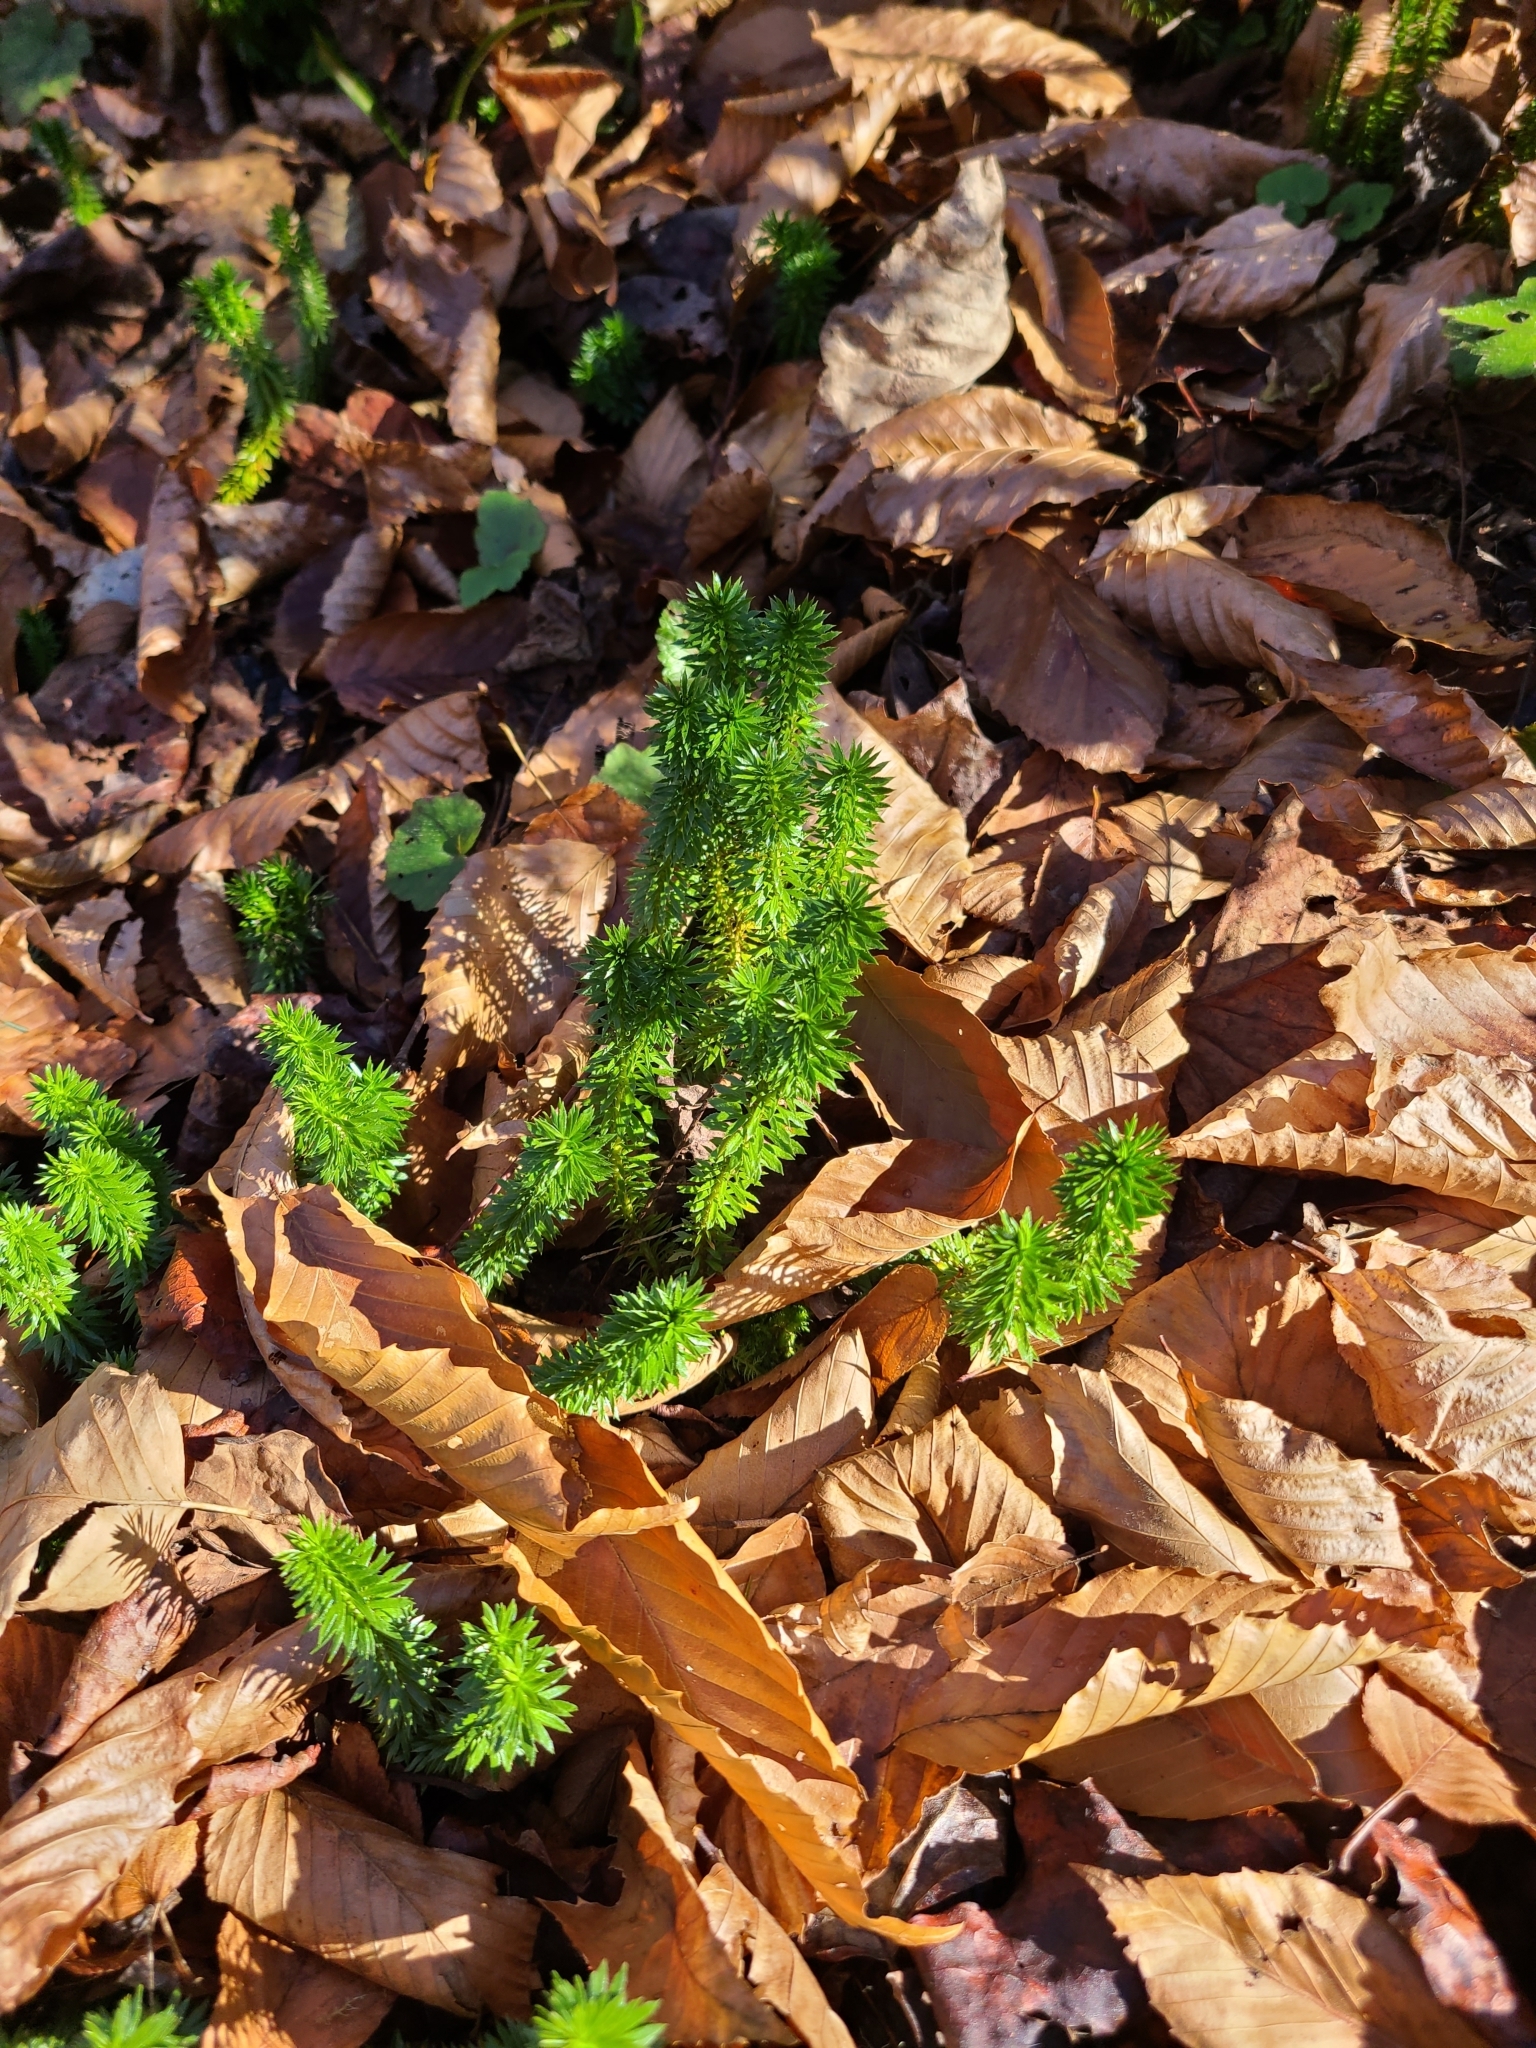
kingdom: Plantae
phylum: Tracheophyta
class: Lycopodiopsida
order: Lycopodiales
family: Lycopodiaceae
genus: Huperzia
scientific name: Huperzia lucidula
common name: Shining clubmoss
